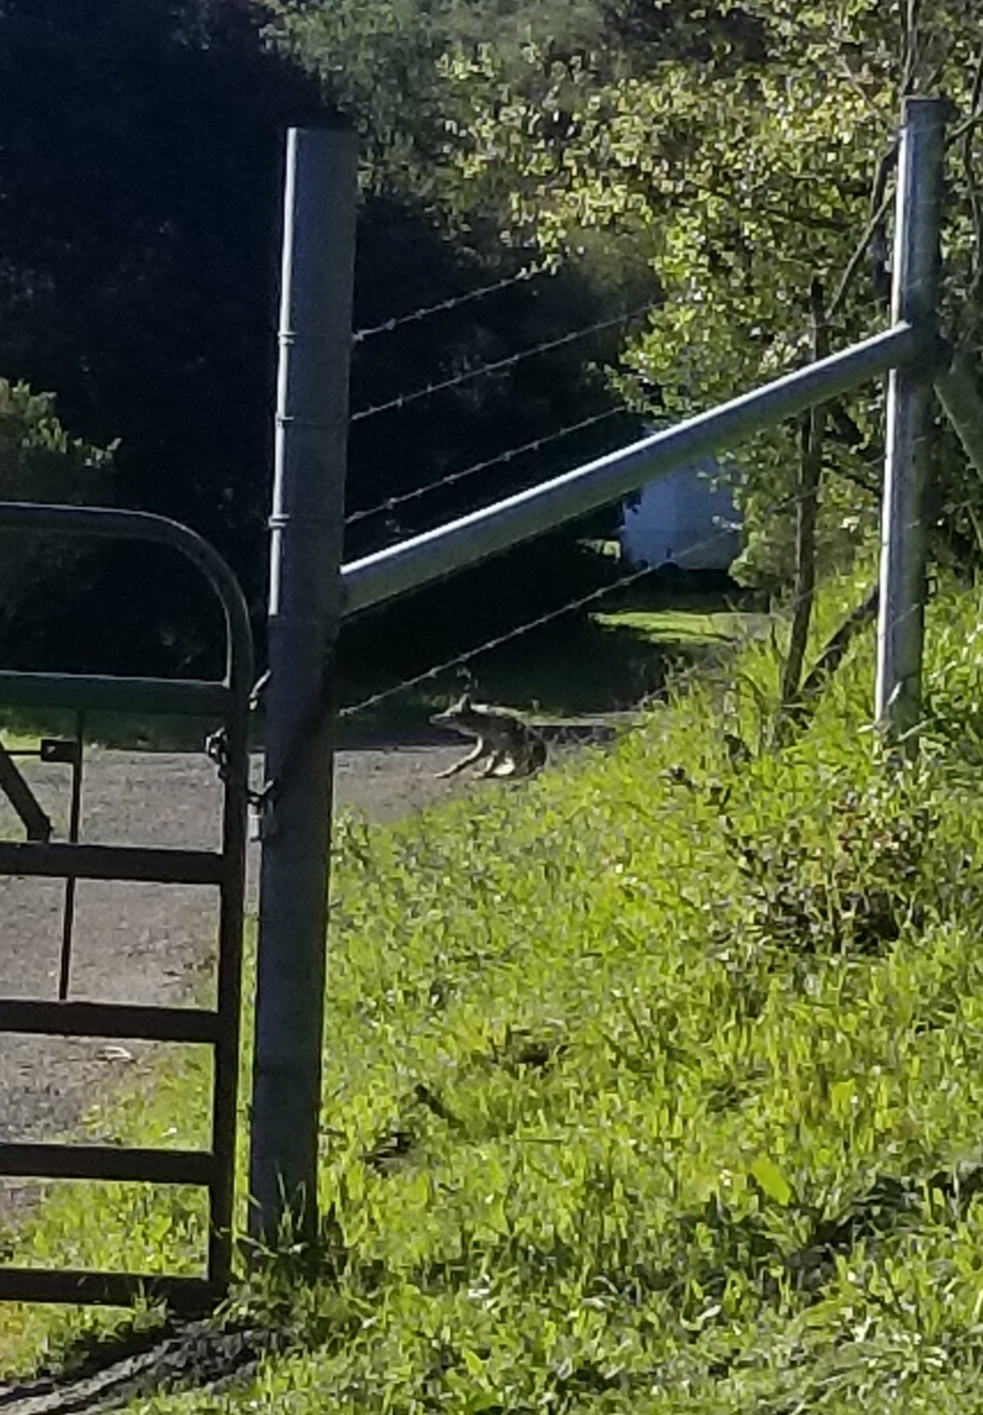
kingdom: Animalia
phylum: Chordata
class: Mammalia
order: Carnivora
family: Canidae
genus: Canis
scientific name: Canis latrans
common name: Coyote
